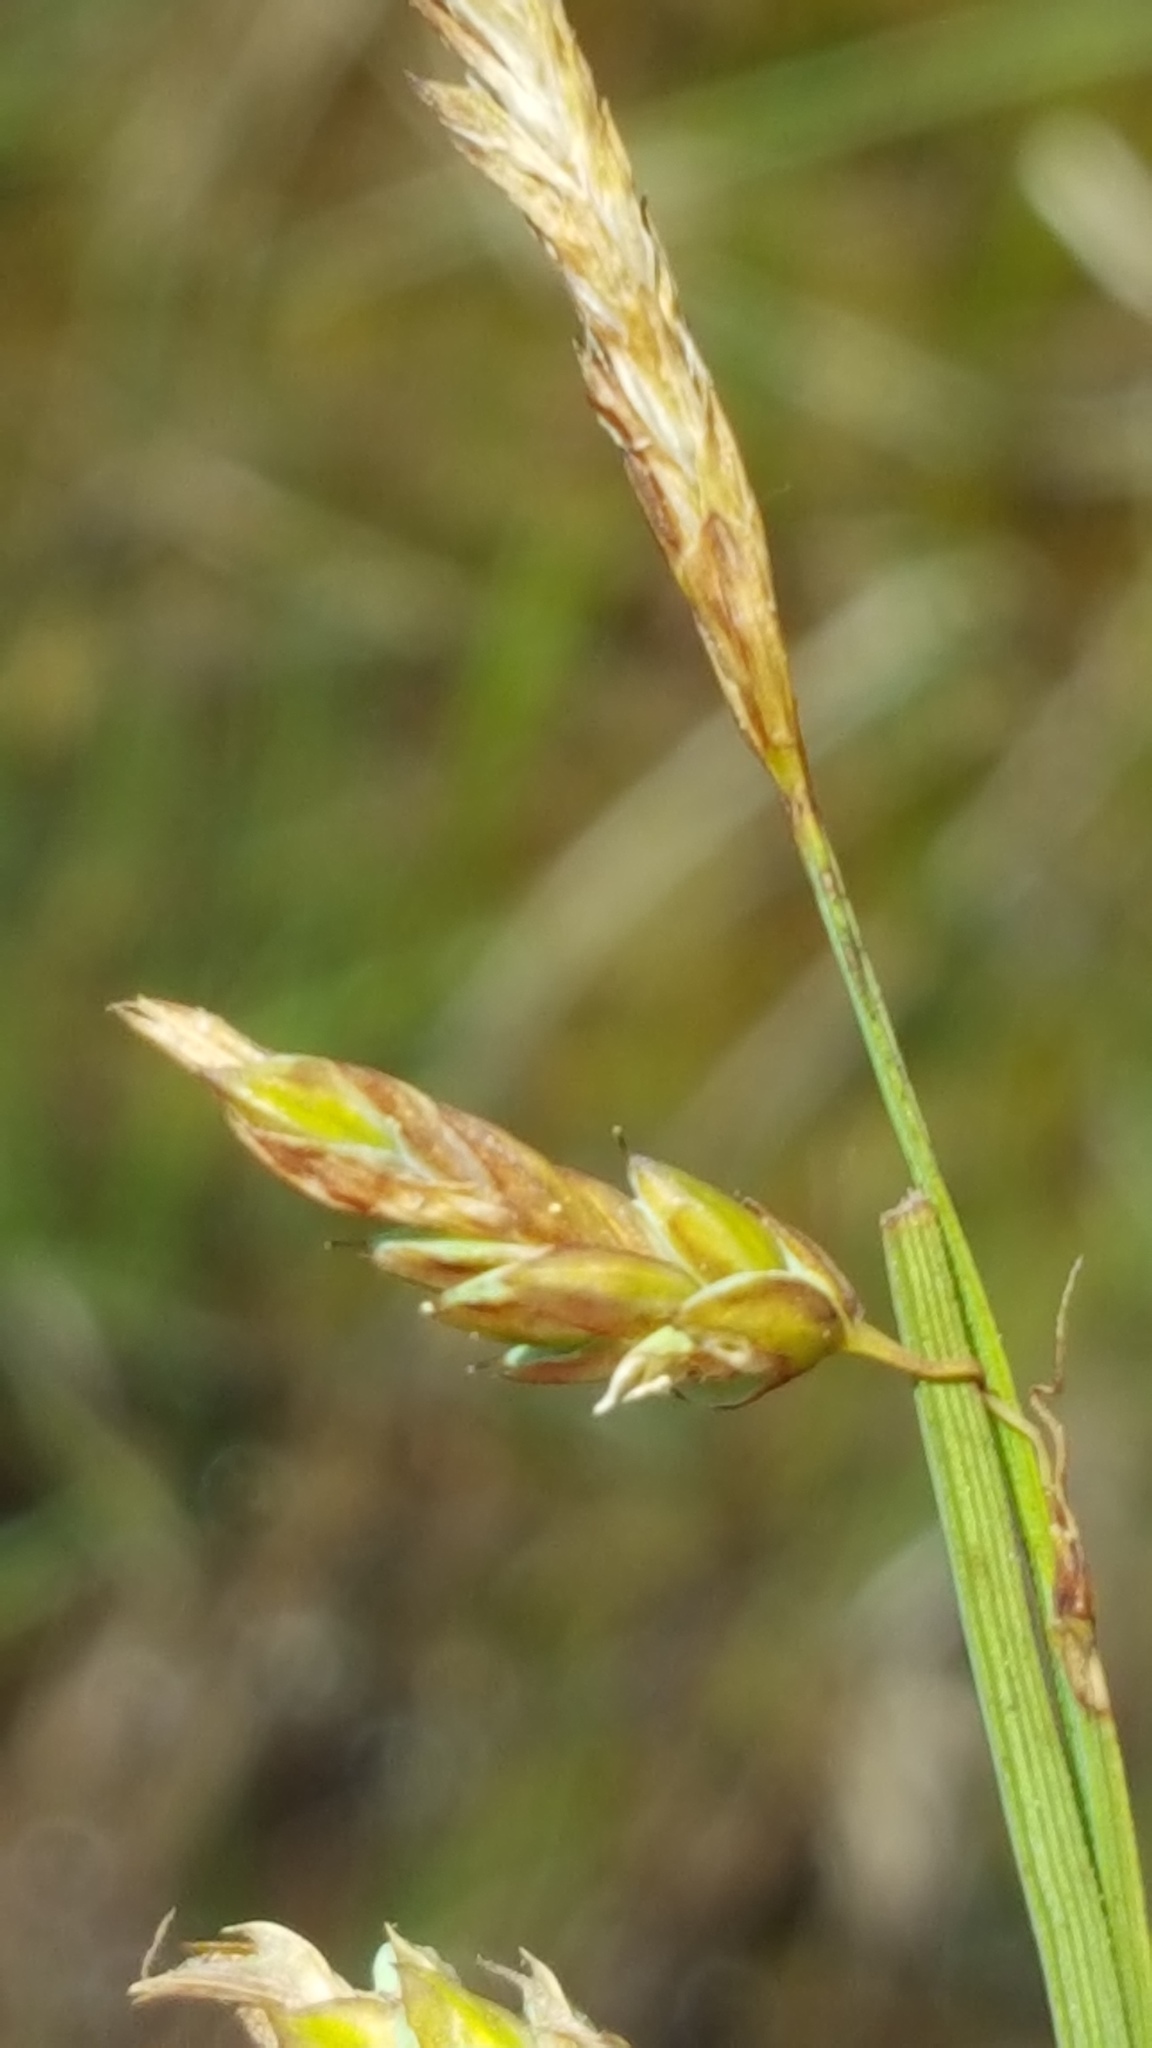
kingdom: Plantae
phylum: Tracheophyta
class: Liliopsida
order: Poales
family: Cyperaceae
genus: Carex
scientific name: Carex limosa
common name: Bog sedge
